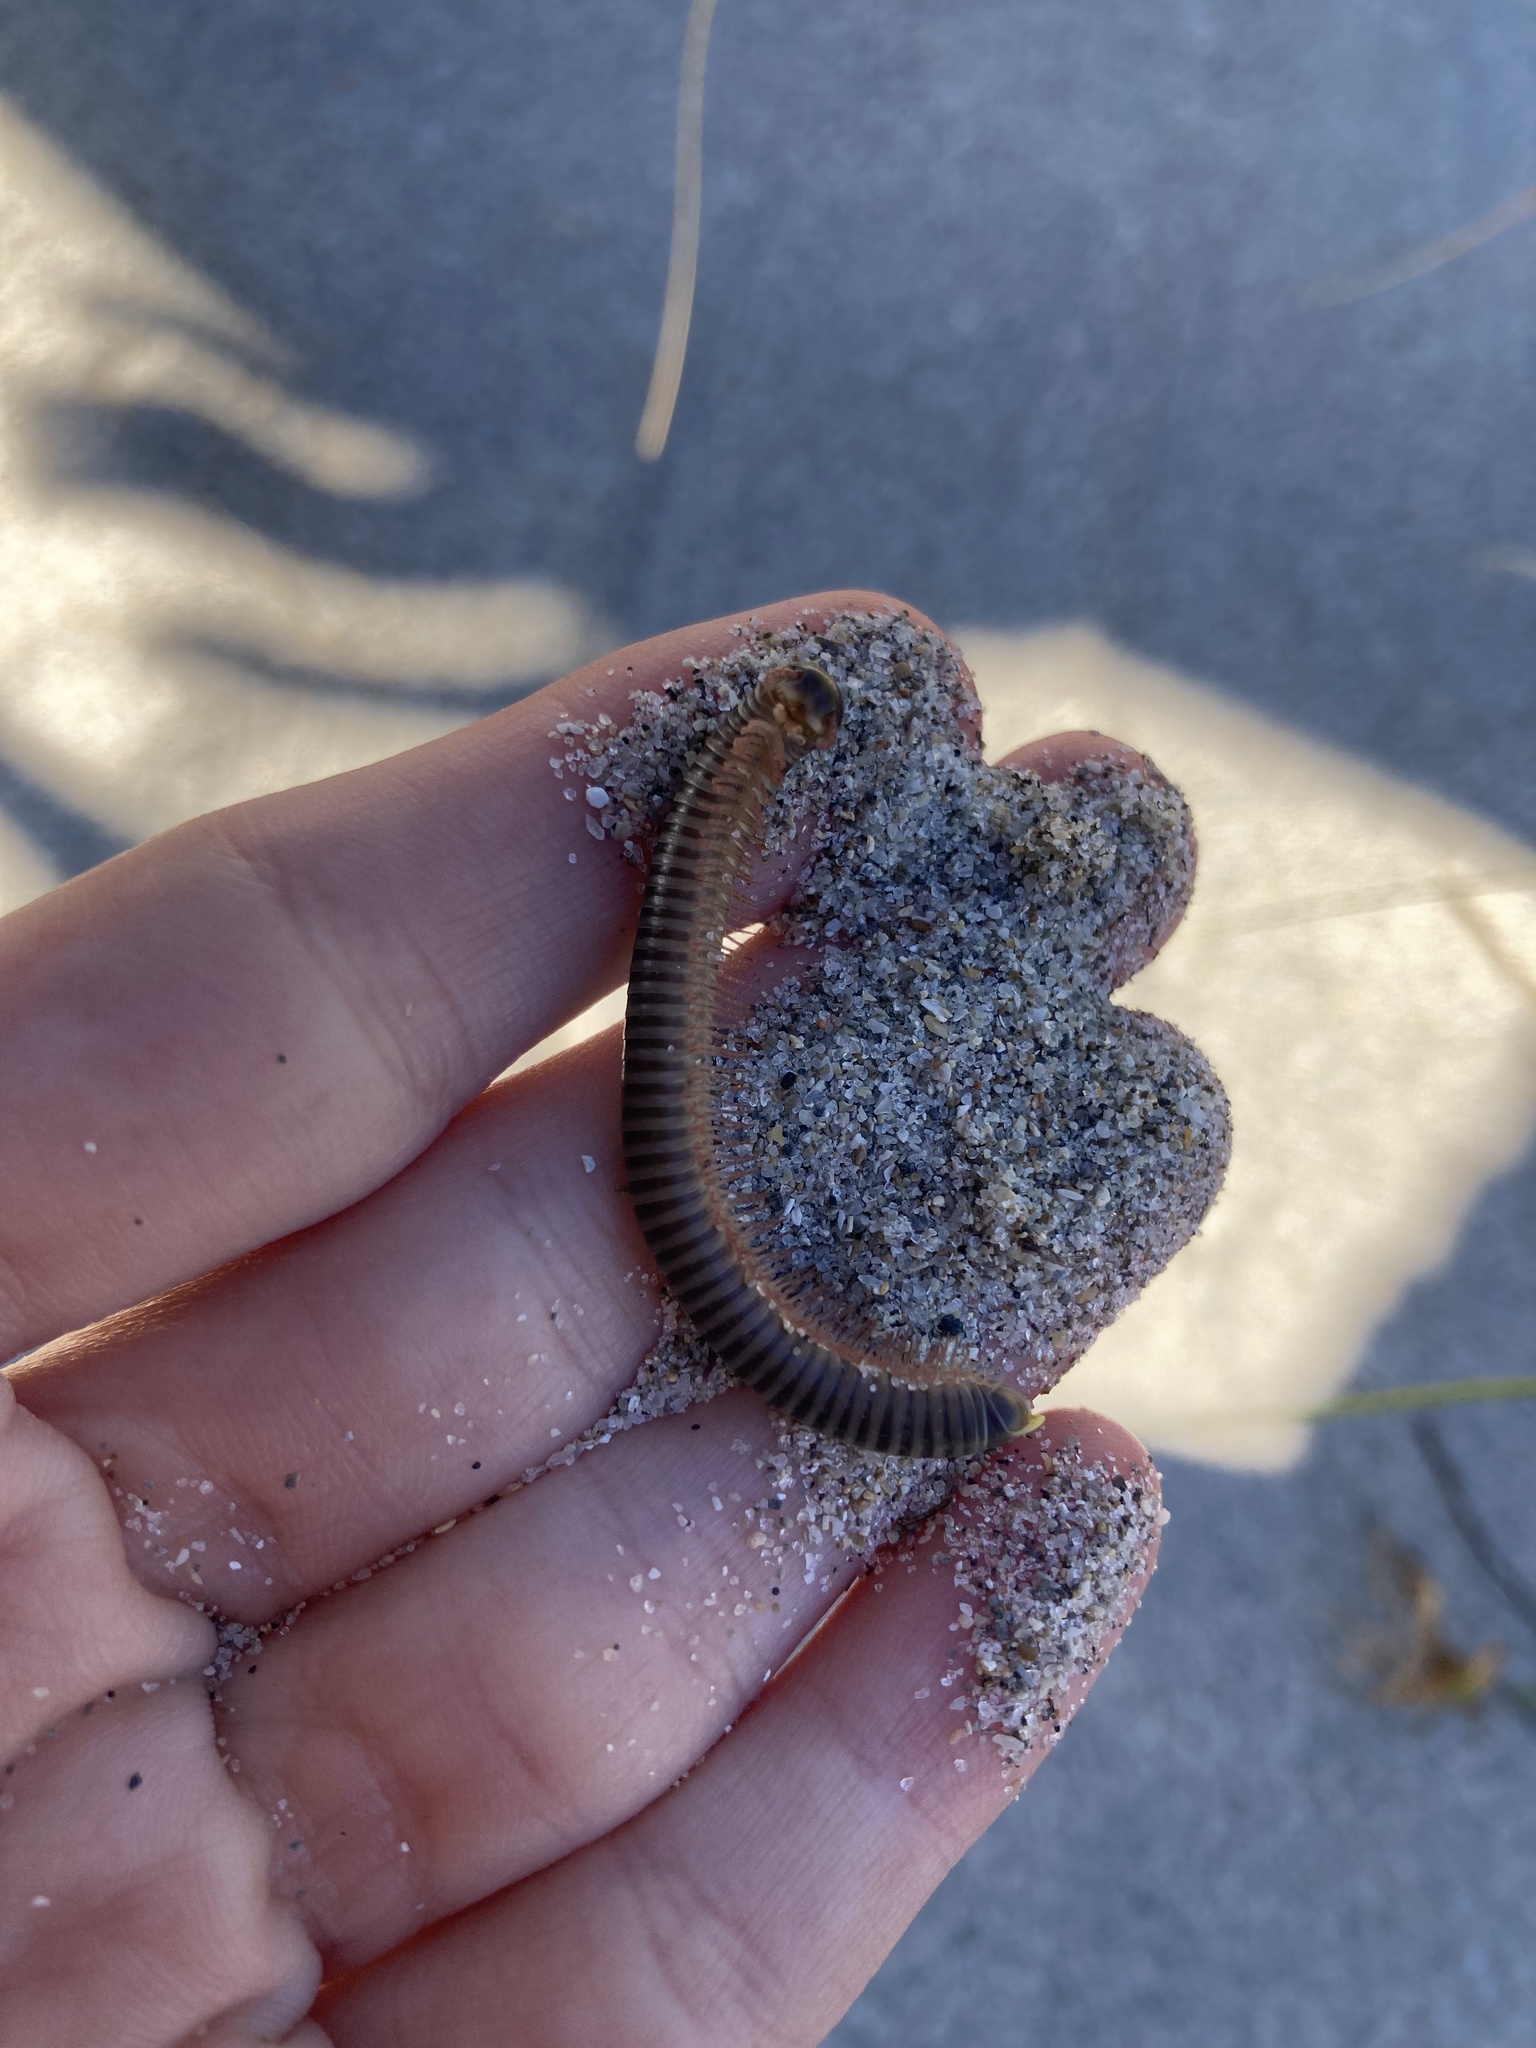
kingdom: Animalia
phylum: Arthropoda
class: Diplopoda
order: Spirobolida
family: Rhinocricidae
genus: Anadenobolus
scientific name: Anadenobolus monilicornis
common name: Caribbean millipede
